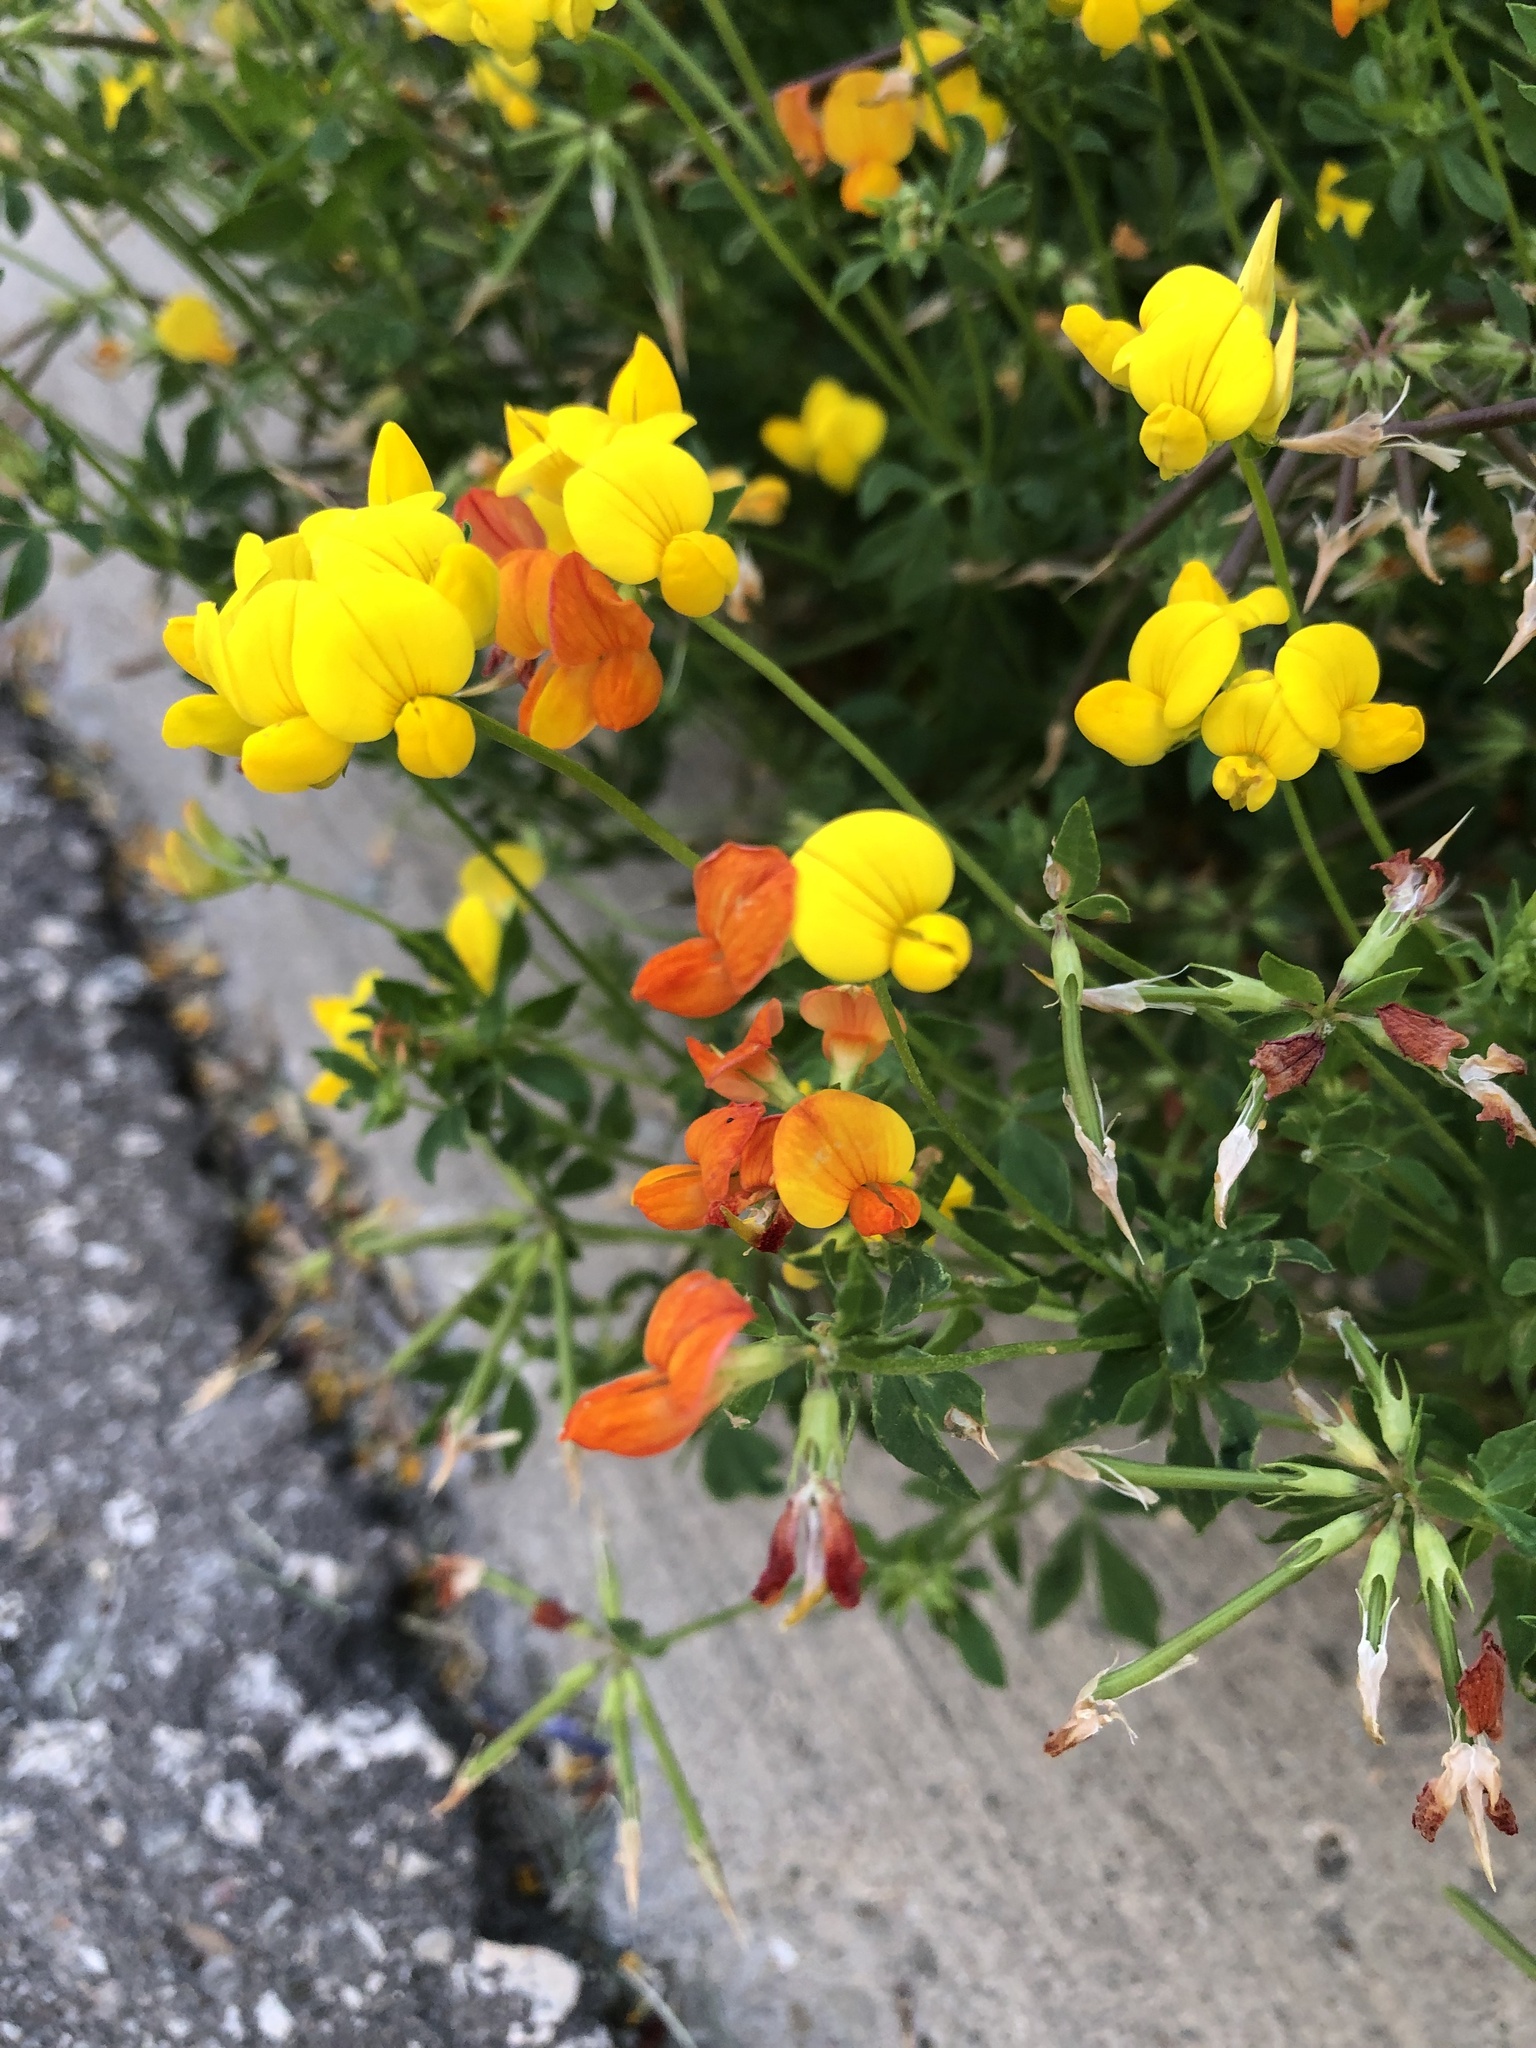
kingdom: Plantae
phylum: Tracheophyta
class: Magnoliopsida
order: Fabales
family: Fabaceae
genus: Lotus
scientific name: Lotus corniculatus
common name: Common bird's-foot-trefoil
